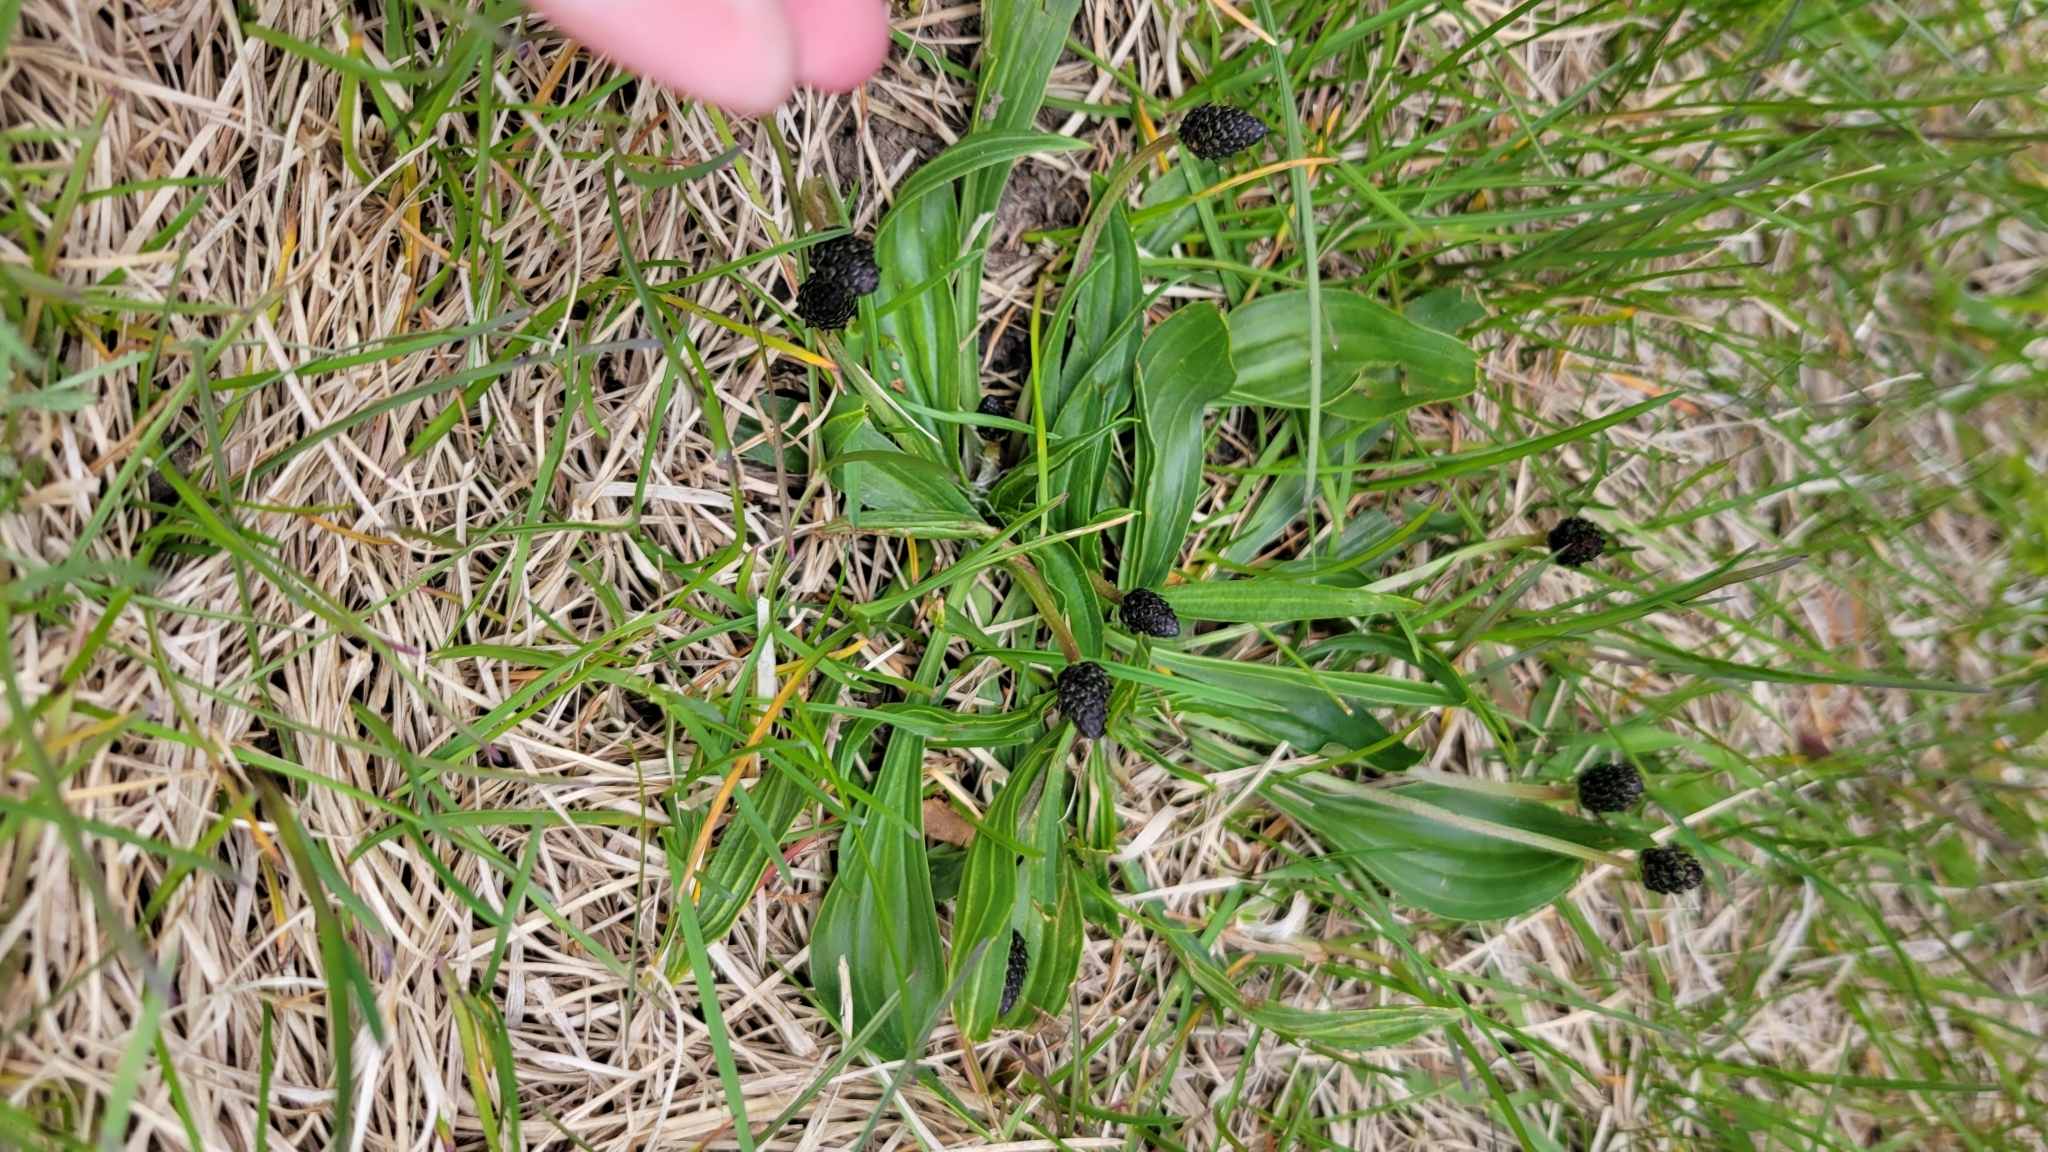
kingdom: Plantae
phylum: Tracheophyta
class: Magnoliopsida
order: Lamiales
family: Plantaginaceae
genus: Plantago
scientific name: Plantago lanceolata
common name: Ribwort plantain
